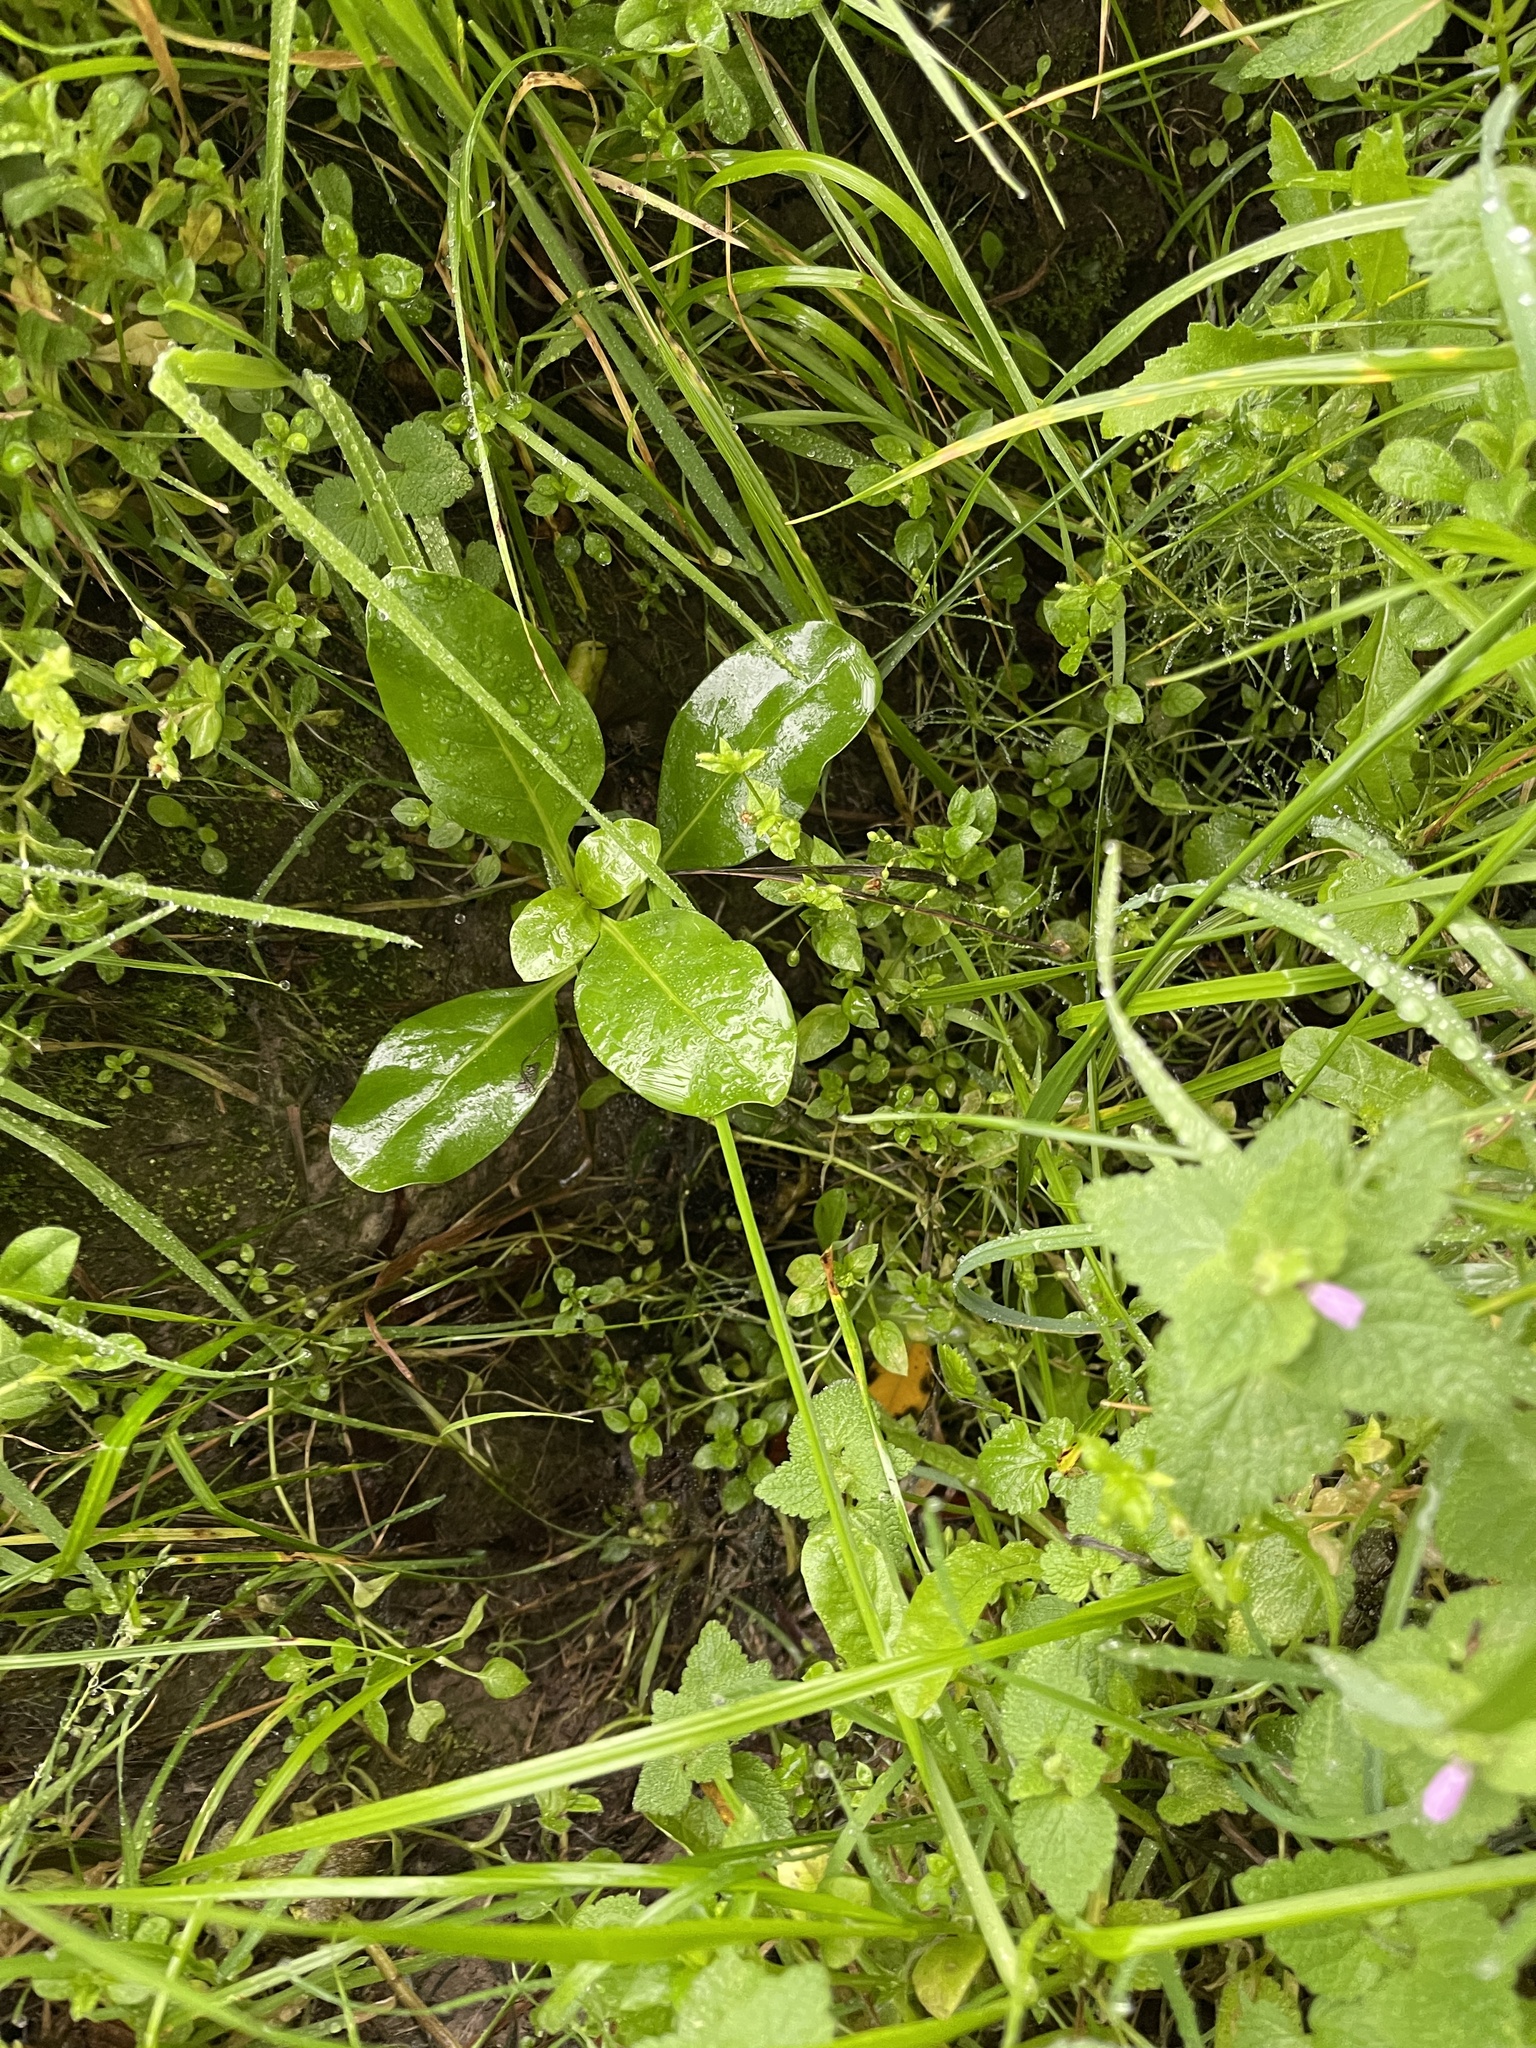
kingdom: Plantae
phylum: Tracheophyta
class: Magnoliopsida
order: Gentianales
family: Rubiaceae
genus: Coprosma
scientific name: Coprosma repens
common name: Tree bedstraw
